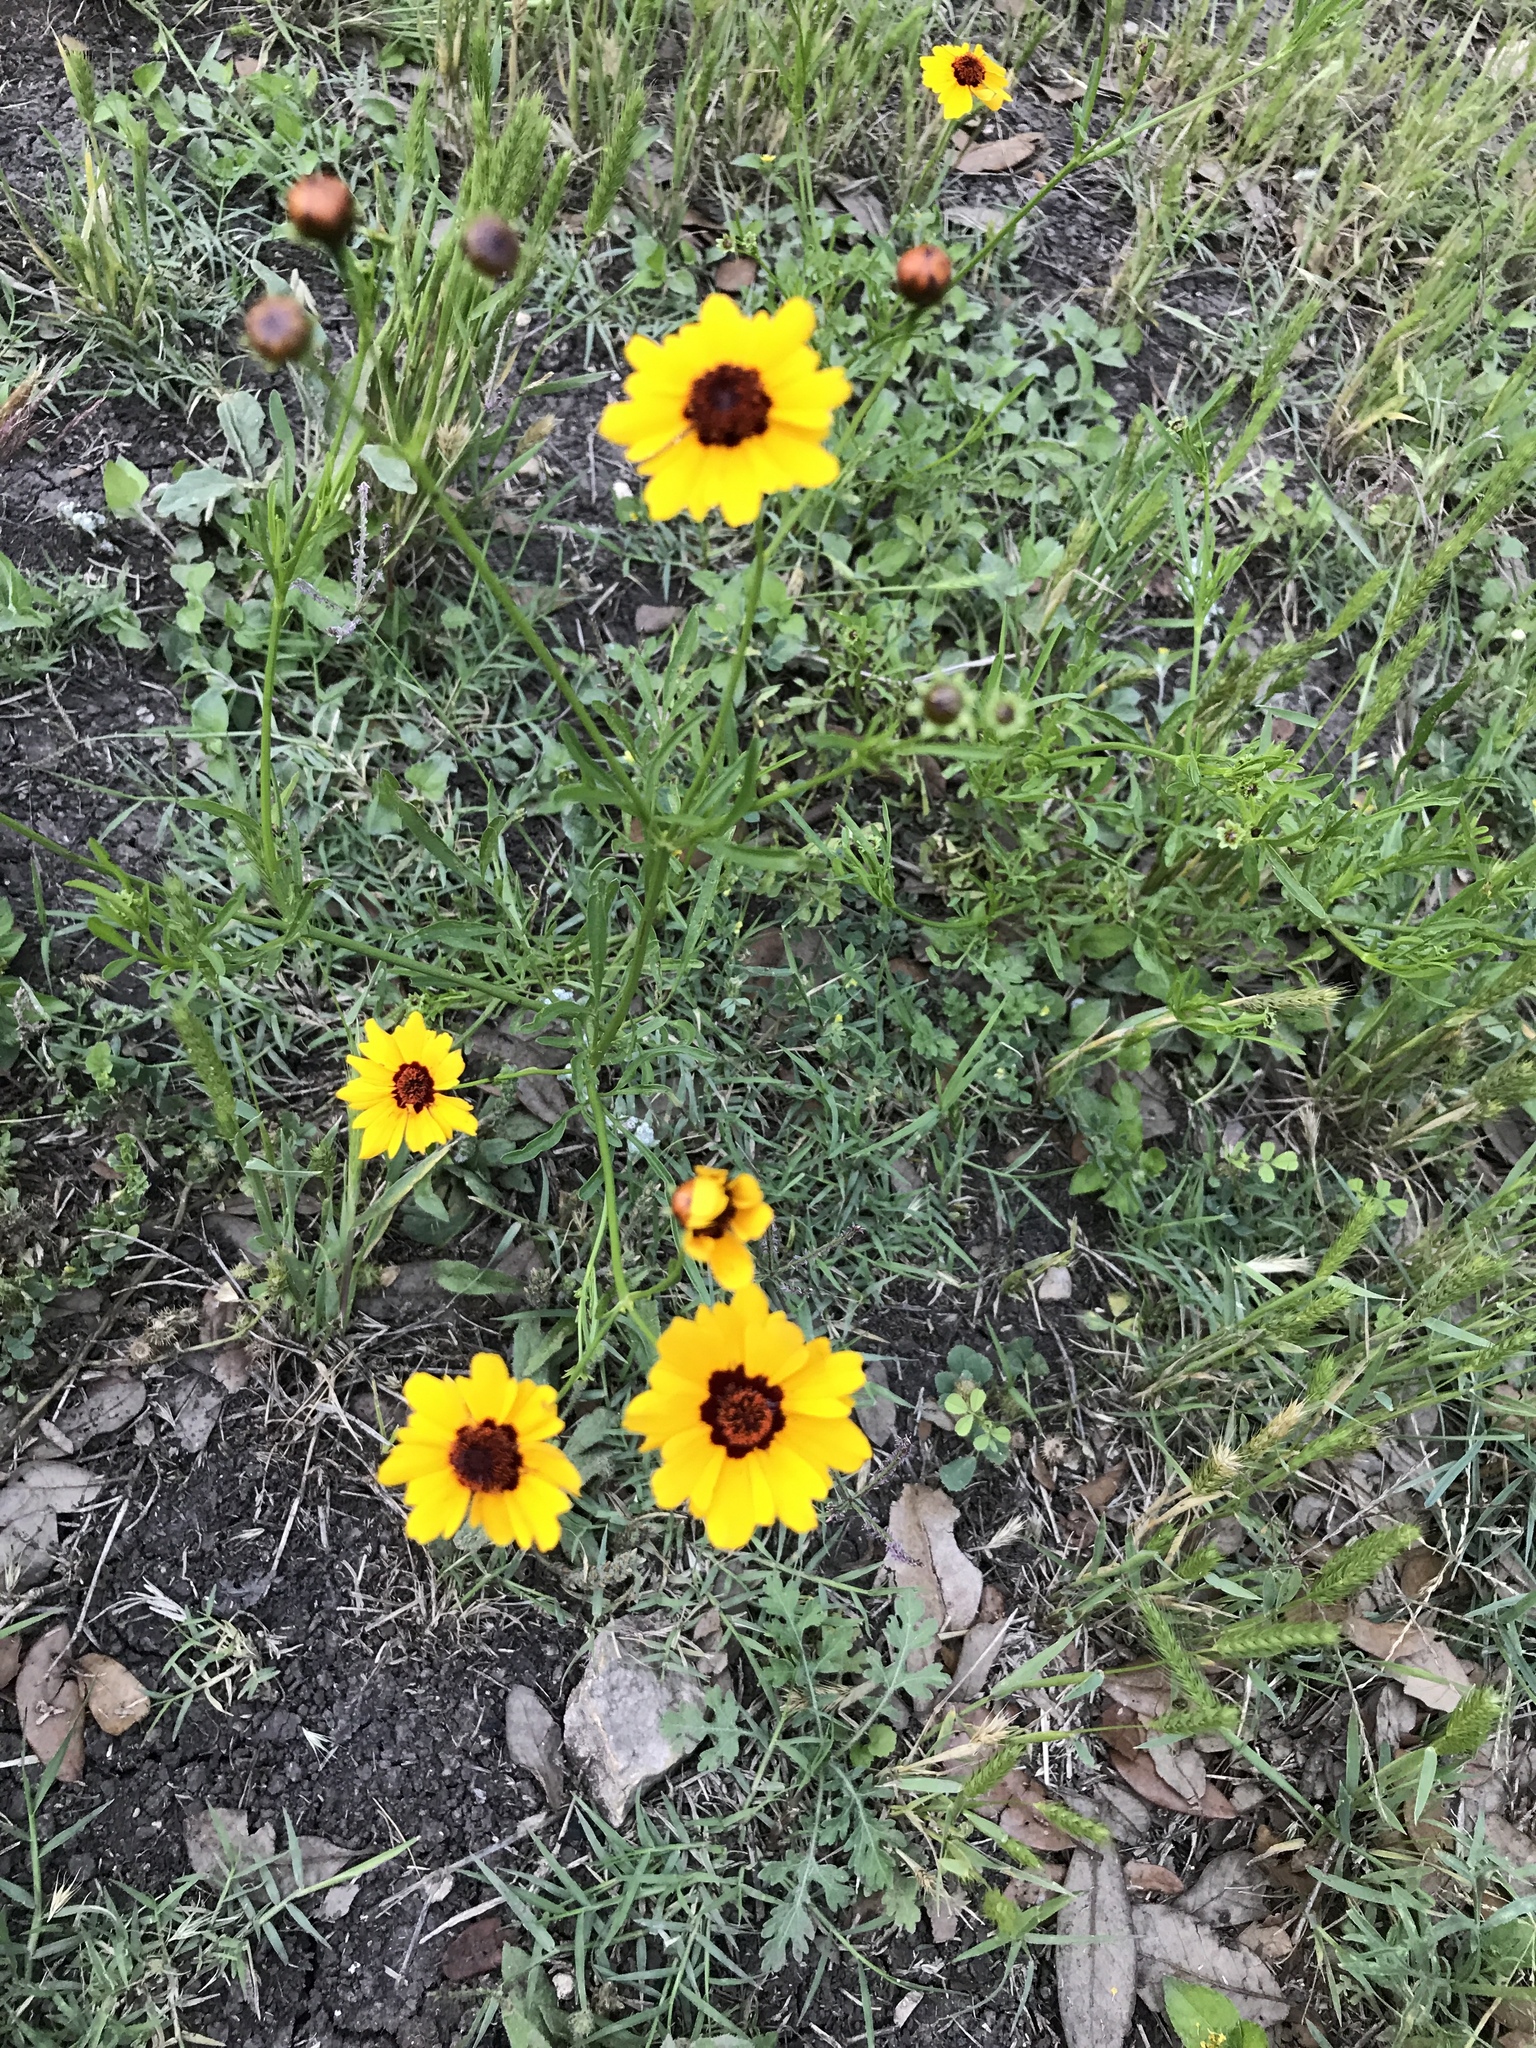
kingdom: Plantae
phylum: Tracheophyta
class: Magnoliopsida
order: Asterales
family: Asteraceae
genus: Coreopsis
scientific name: Coreopsis tinctoria
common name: Garden tickseed
